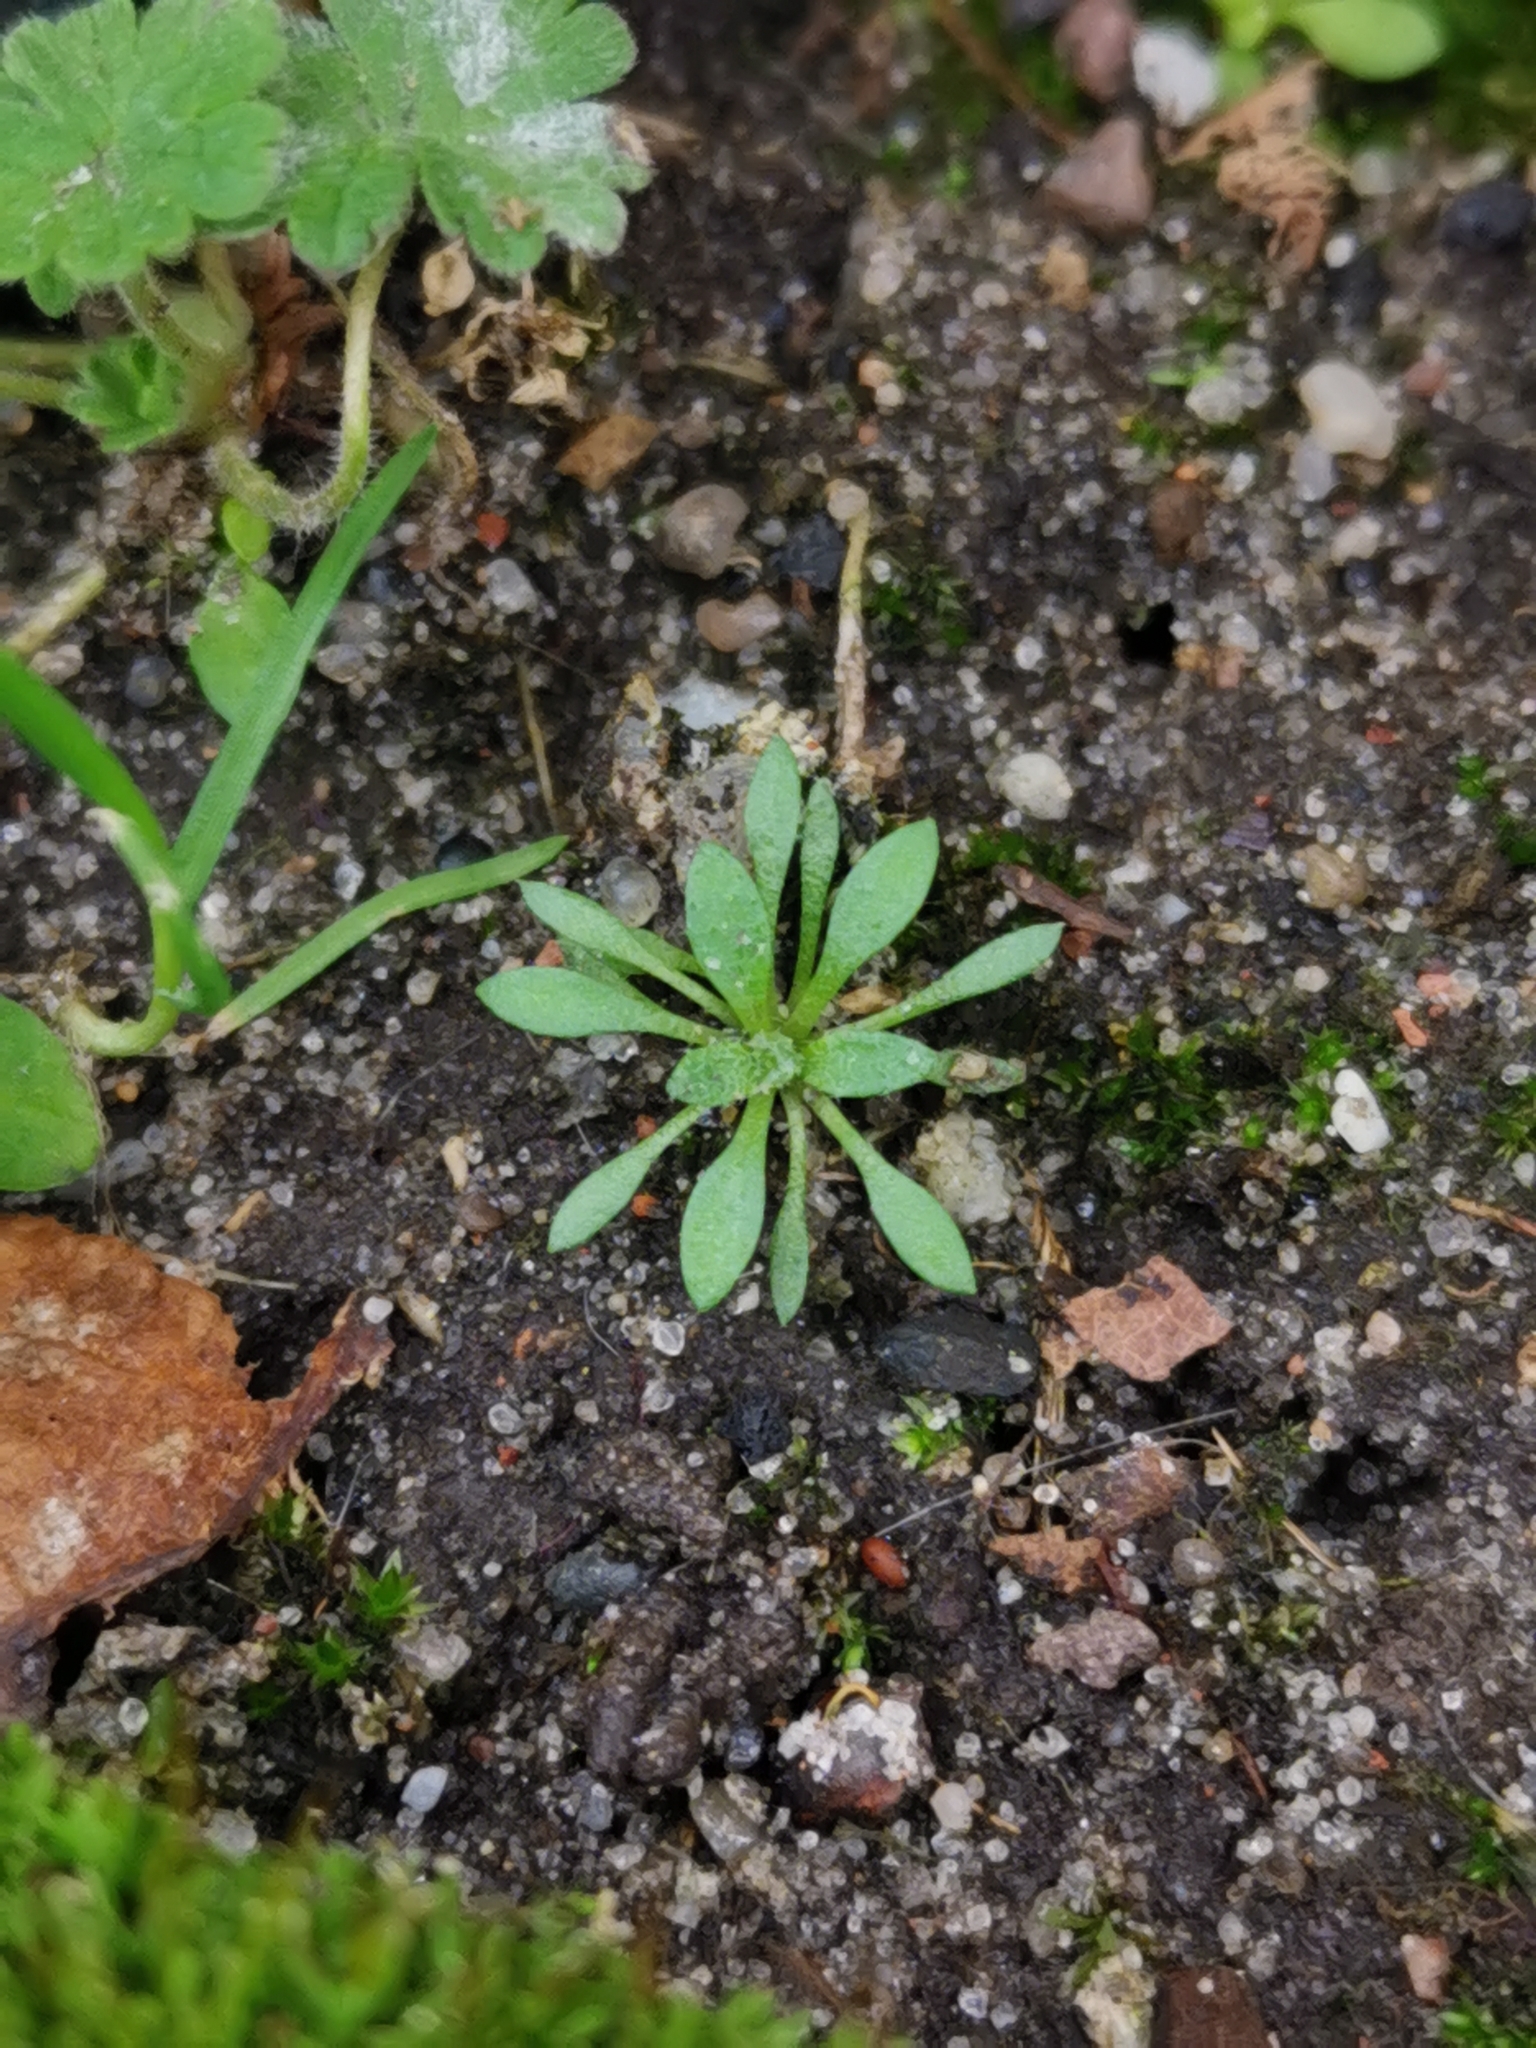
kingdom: Plantae
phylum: Tracheophyta
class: Magnoliopsida
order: Brassicales
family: Brassicaceae
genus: Draba
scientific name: Draba verna
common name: Spring draba
